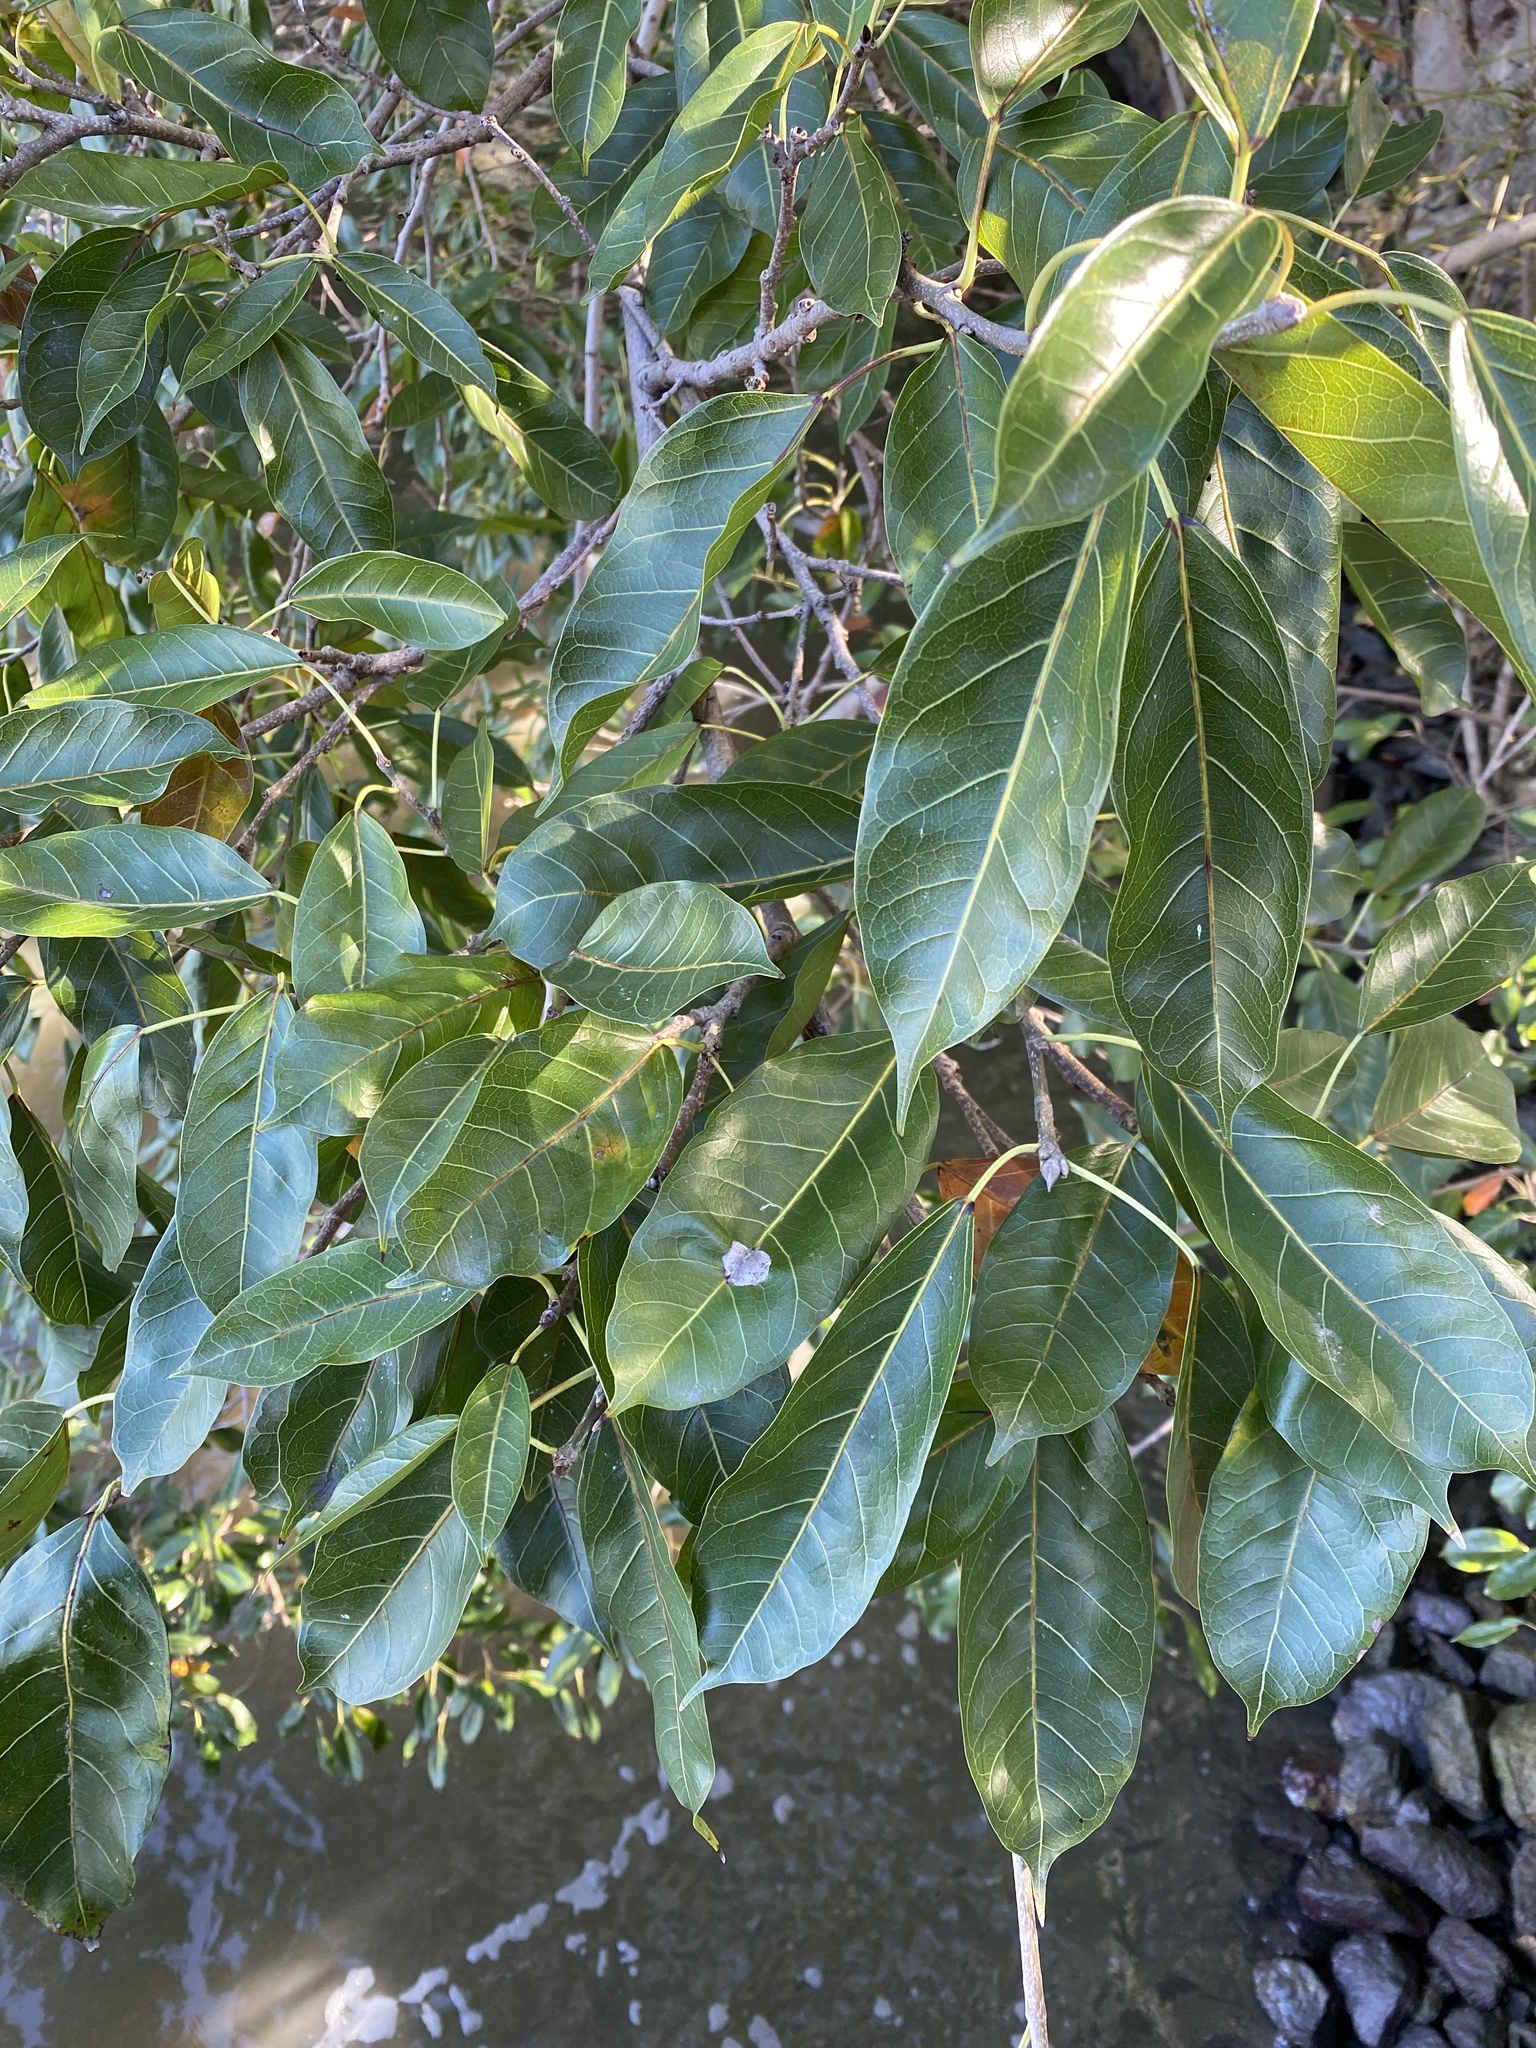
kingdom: Plantae
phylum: Tracheophyta
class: Magnoliopsida
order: Rosales
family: Moraceae
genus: Ficus
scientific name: Ficus virens
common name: Spotted fig
